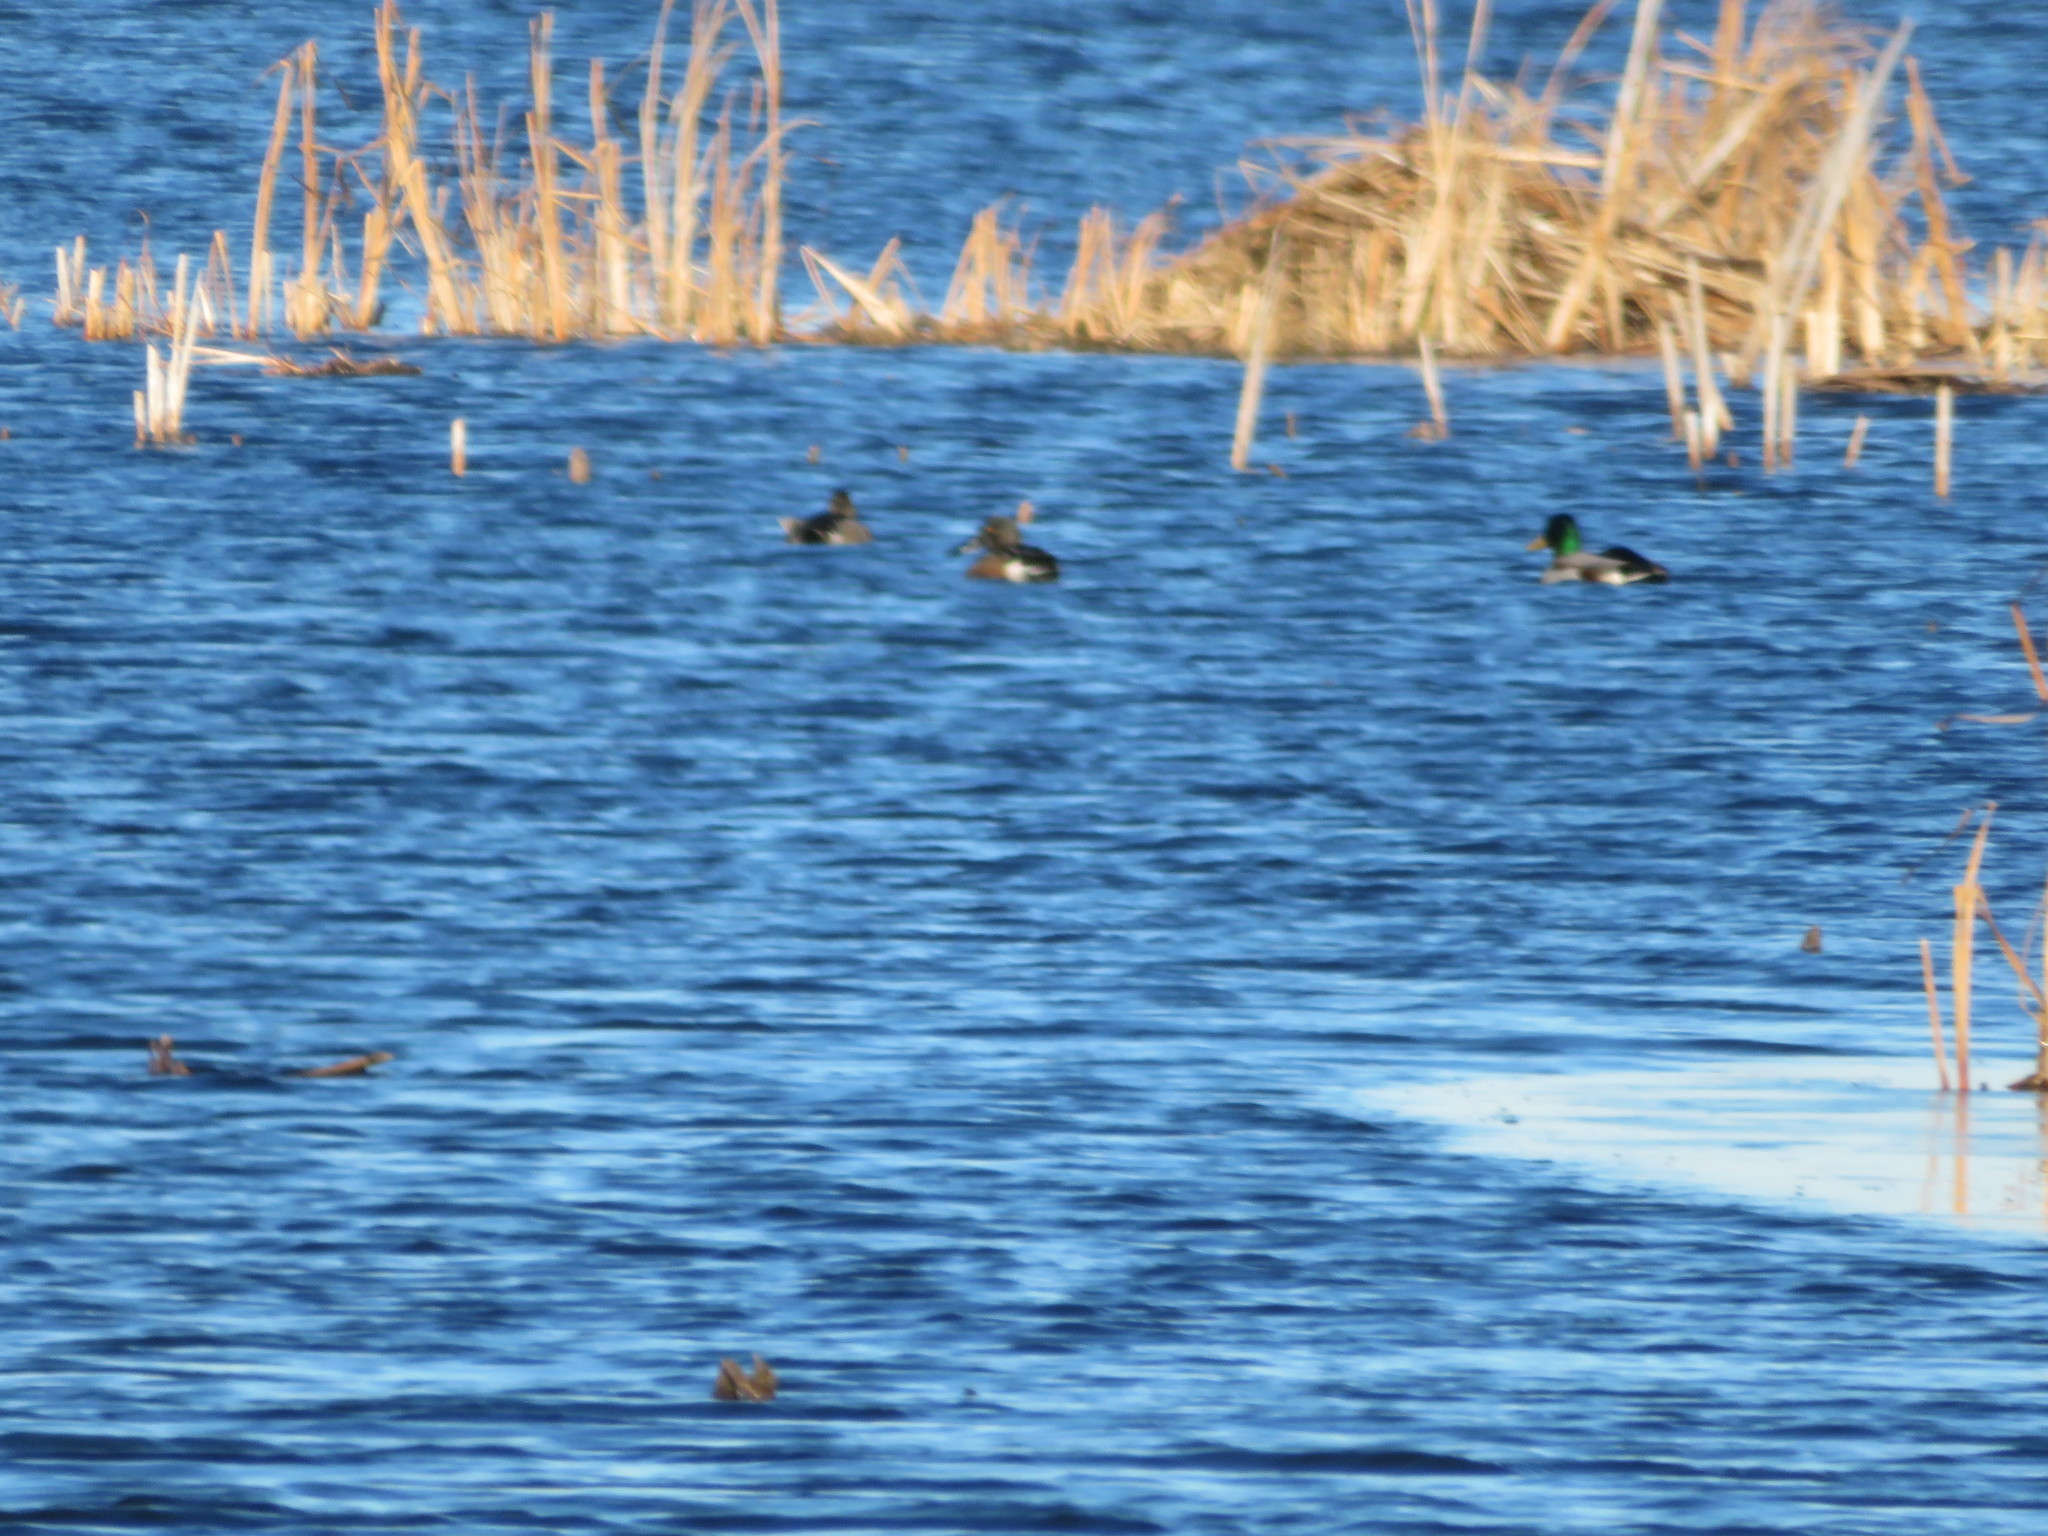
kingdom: Animalia
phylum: Chordata
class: Aves
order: Anseriformes
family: Anatidae
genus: Anas
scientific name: Anas platyrhynchos
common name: Mallard
